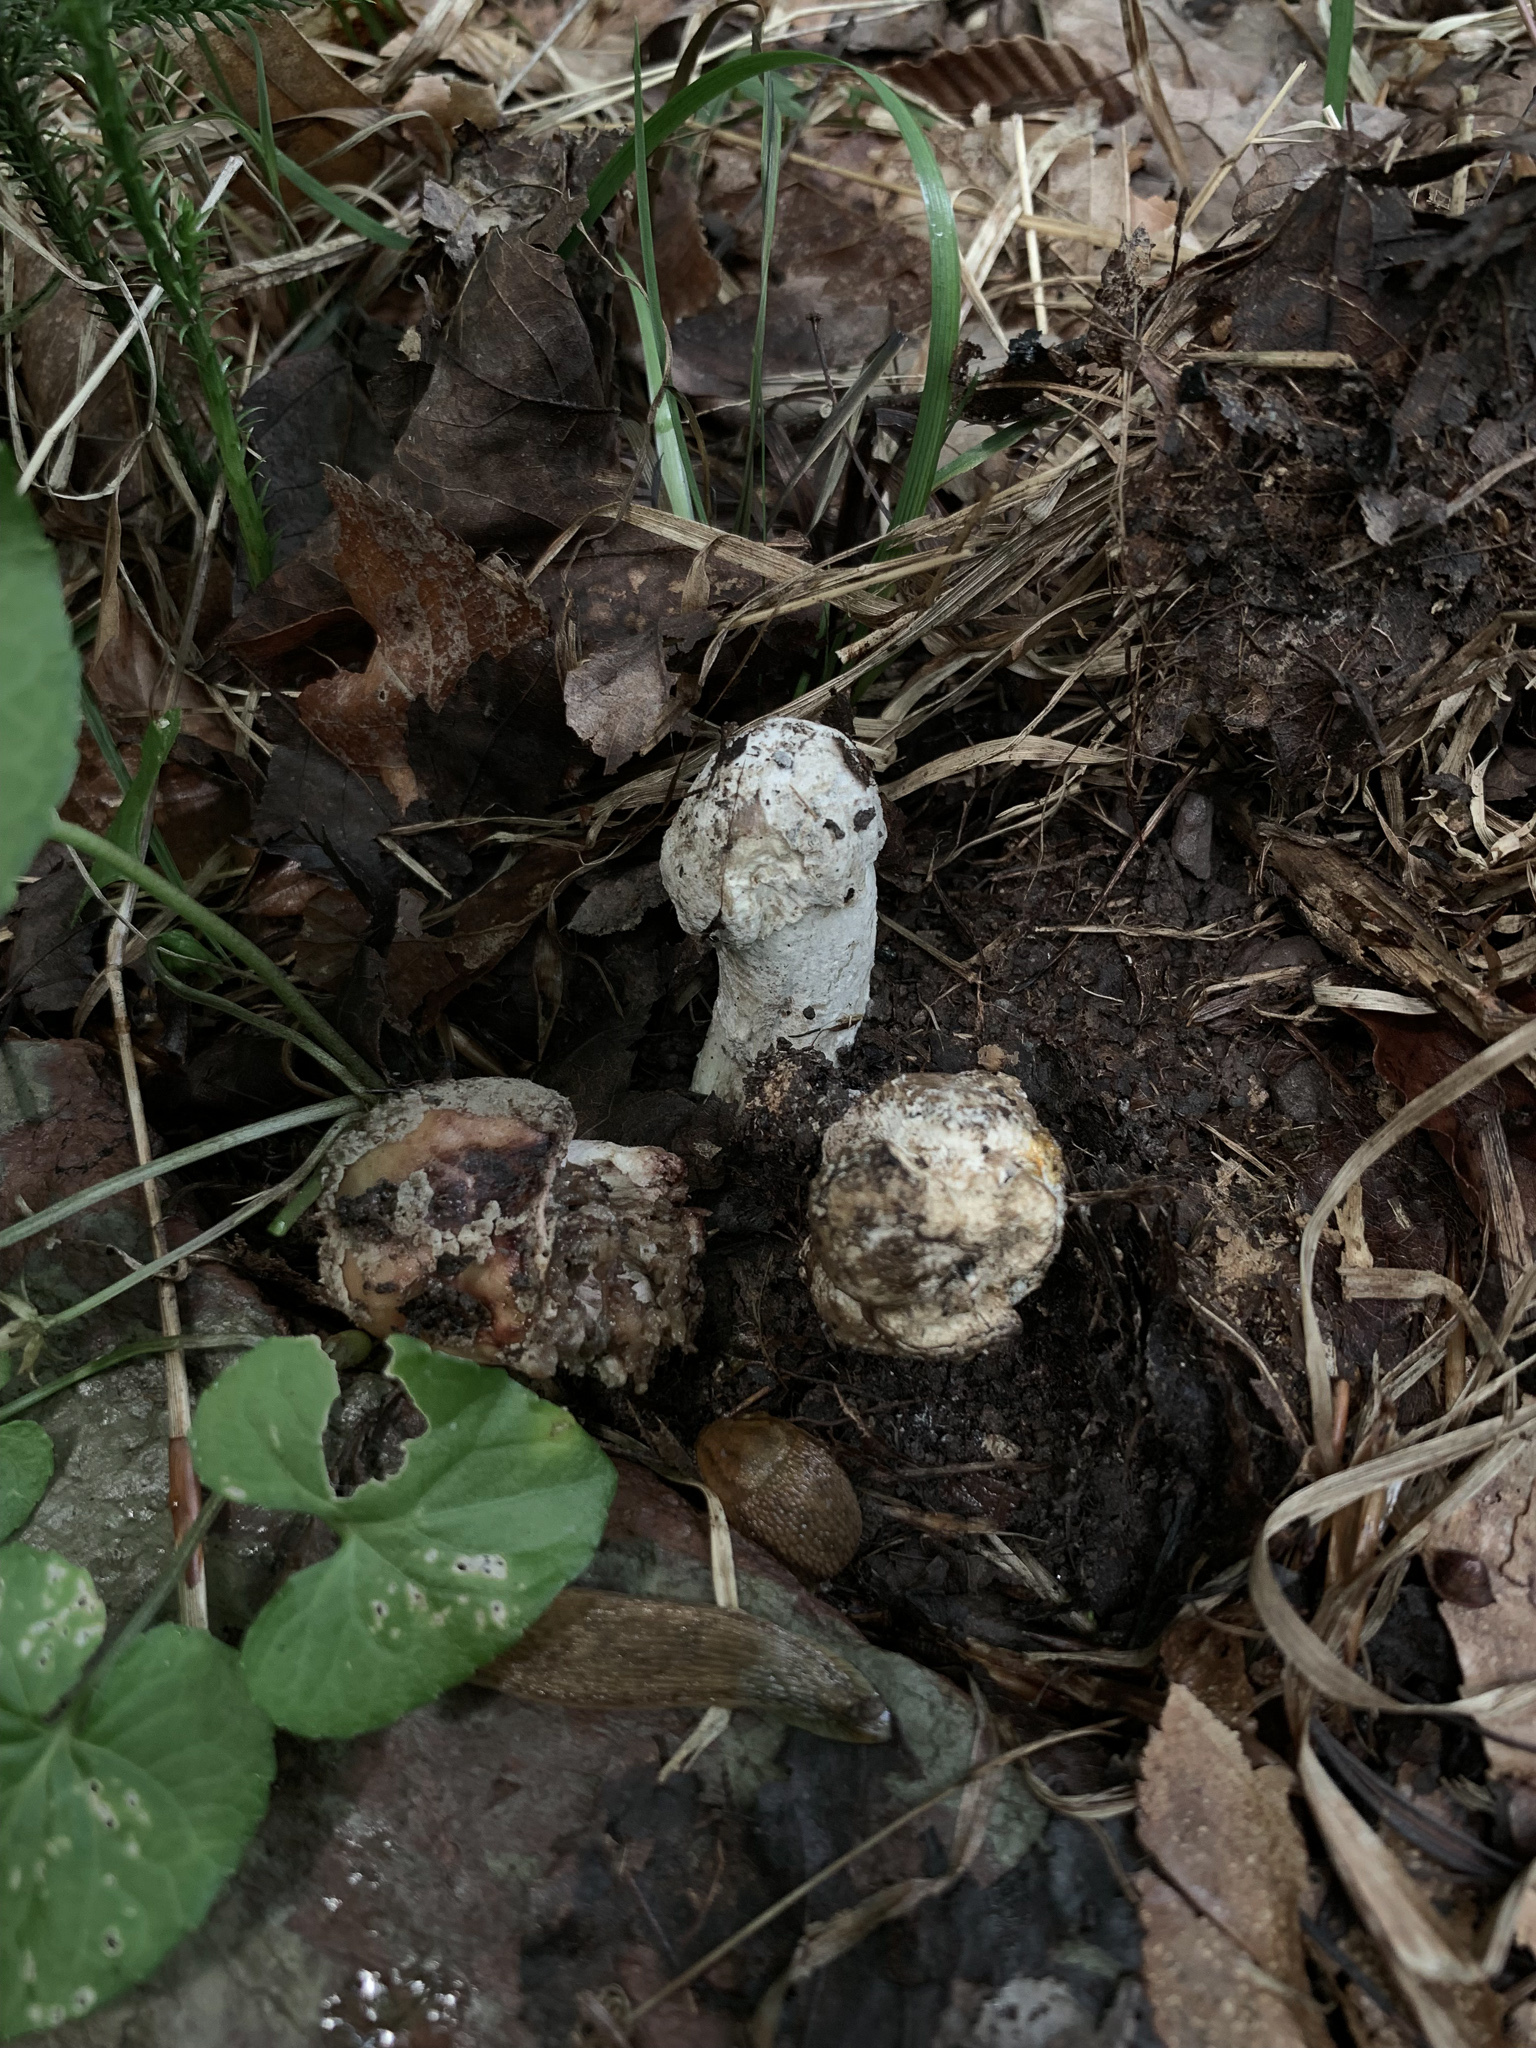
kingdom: Fungi
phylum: Ascomycota
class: Sordariomycetes
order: Hypocreales
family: Hypocreaceae
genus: Hypomyces
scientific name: Hypomyces hyalinus
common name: Amanita mold
